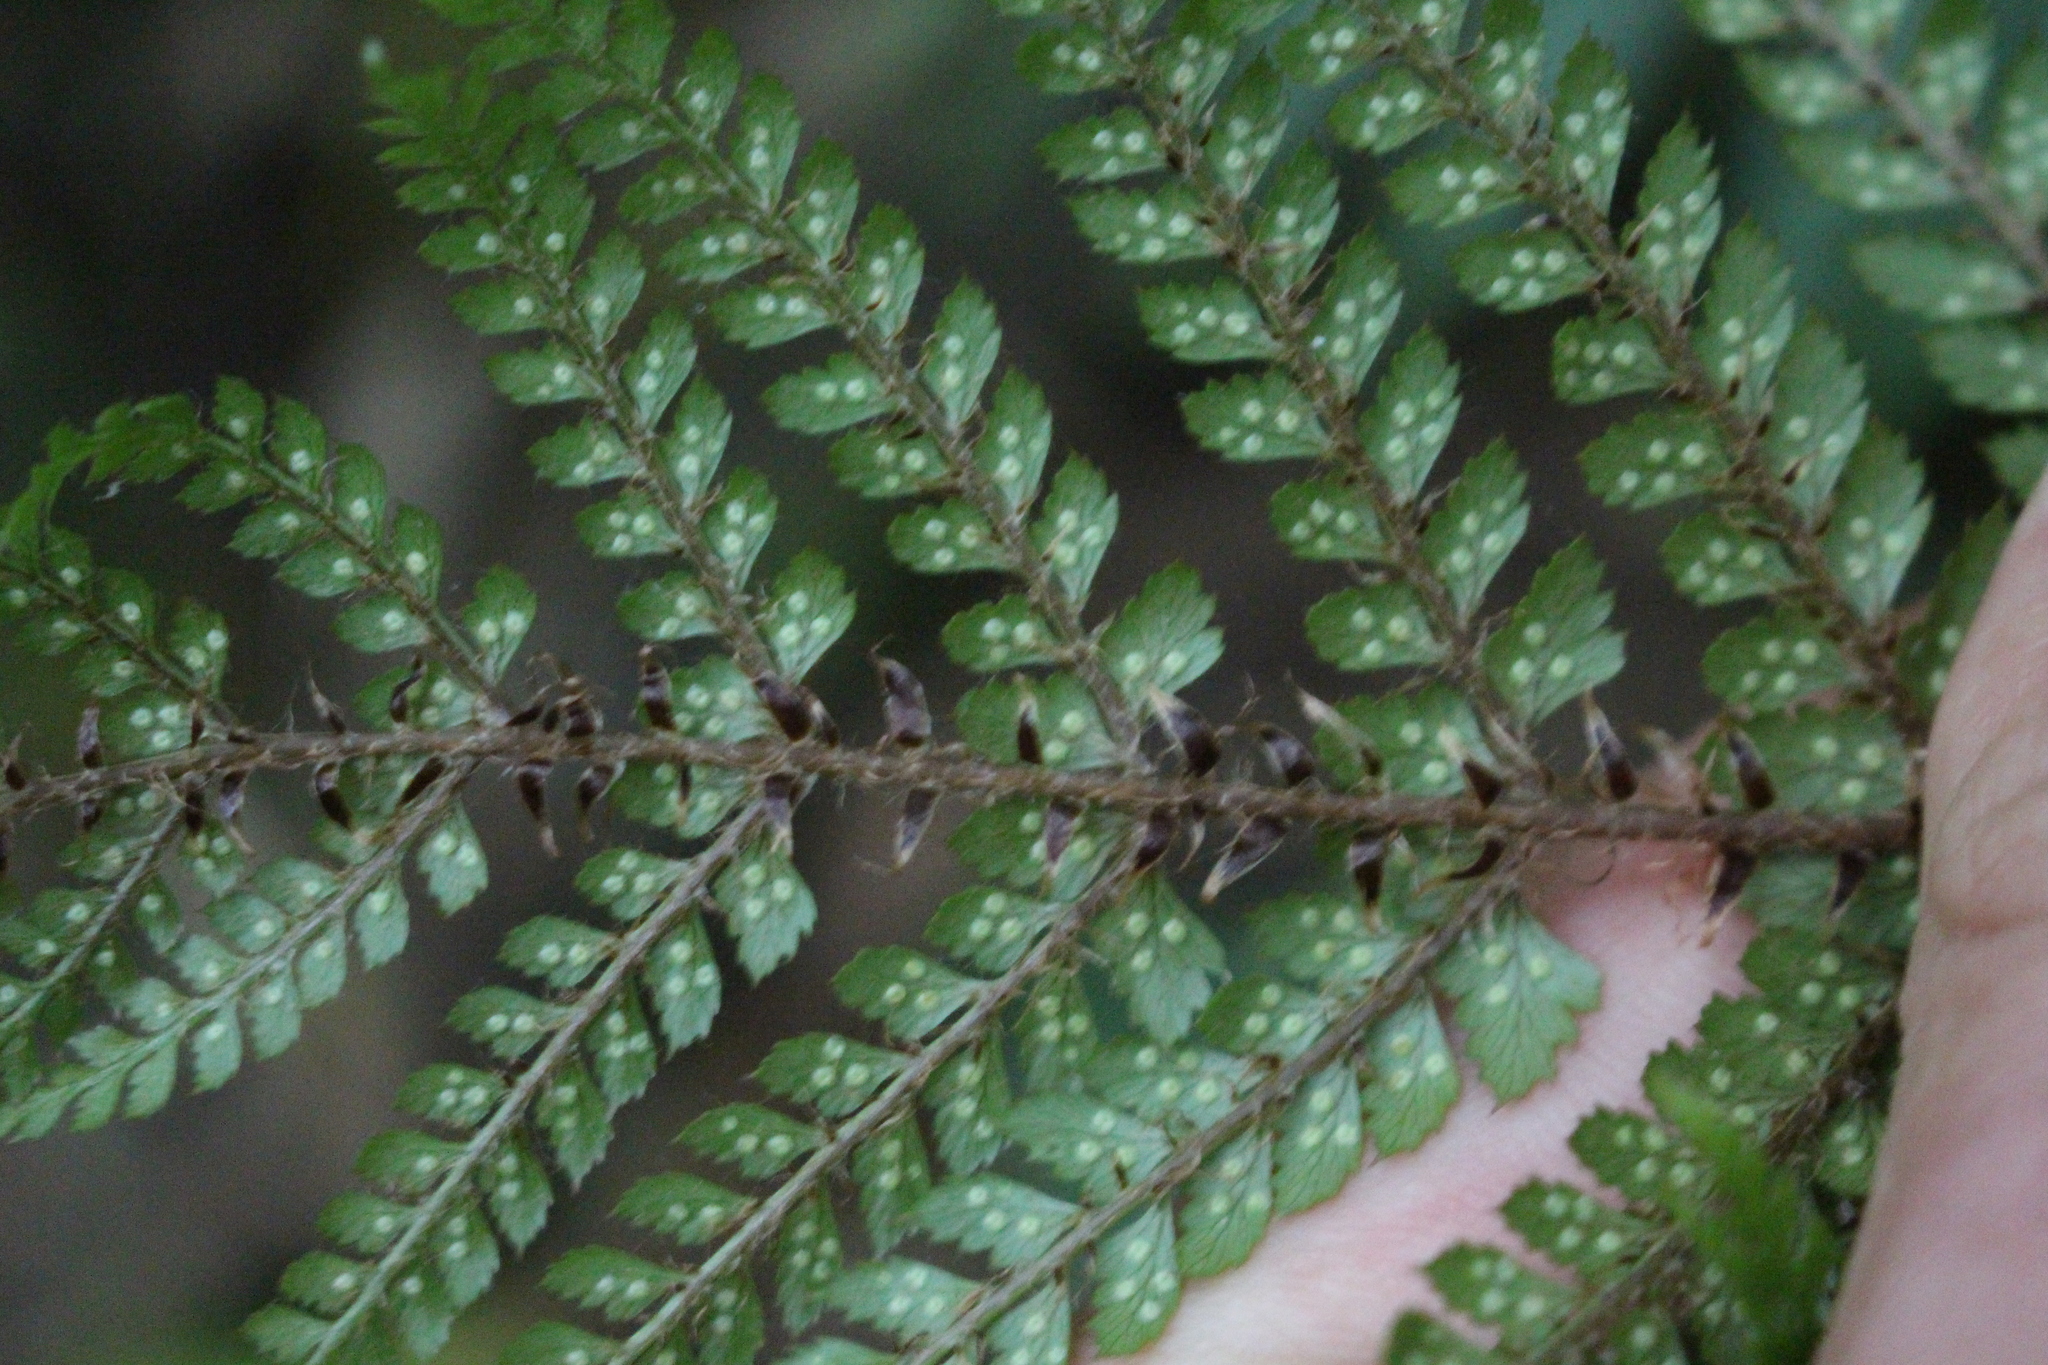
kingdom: Plantae
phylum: Tracheophyta
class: Polypodiopsida
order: Polypodiales
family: Dryopteridaceae
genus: Polystichum
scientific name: Polystichum vestitum
